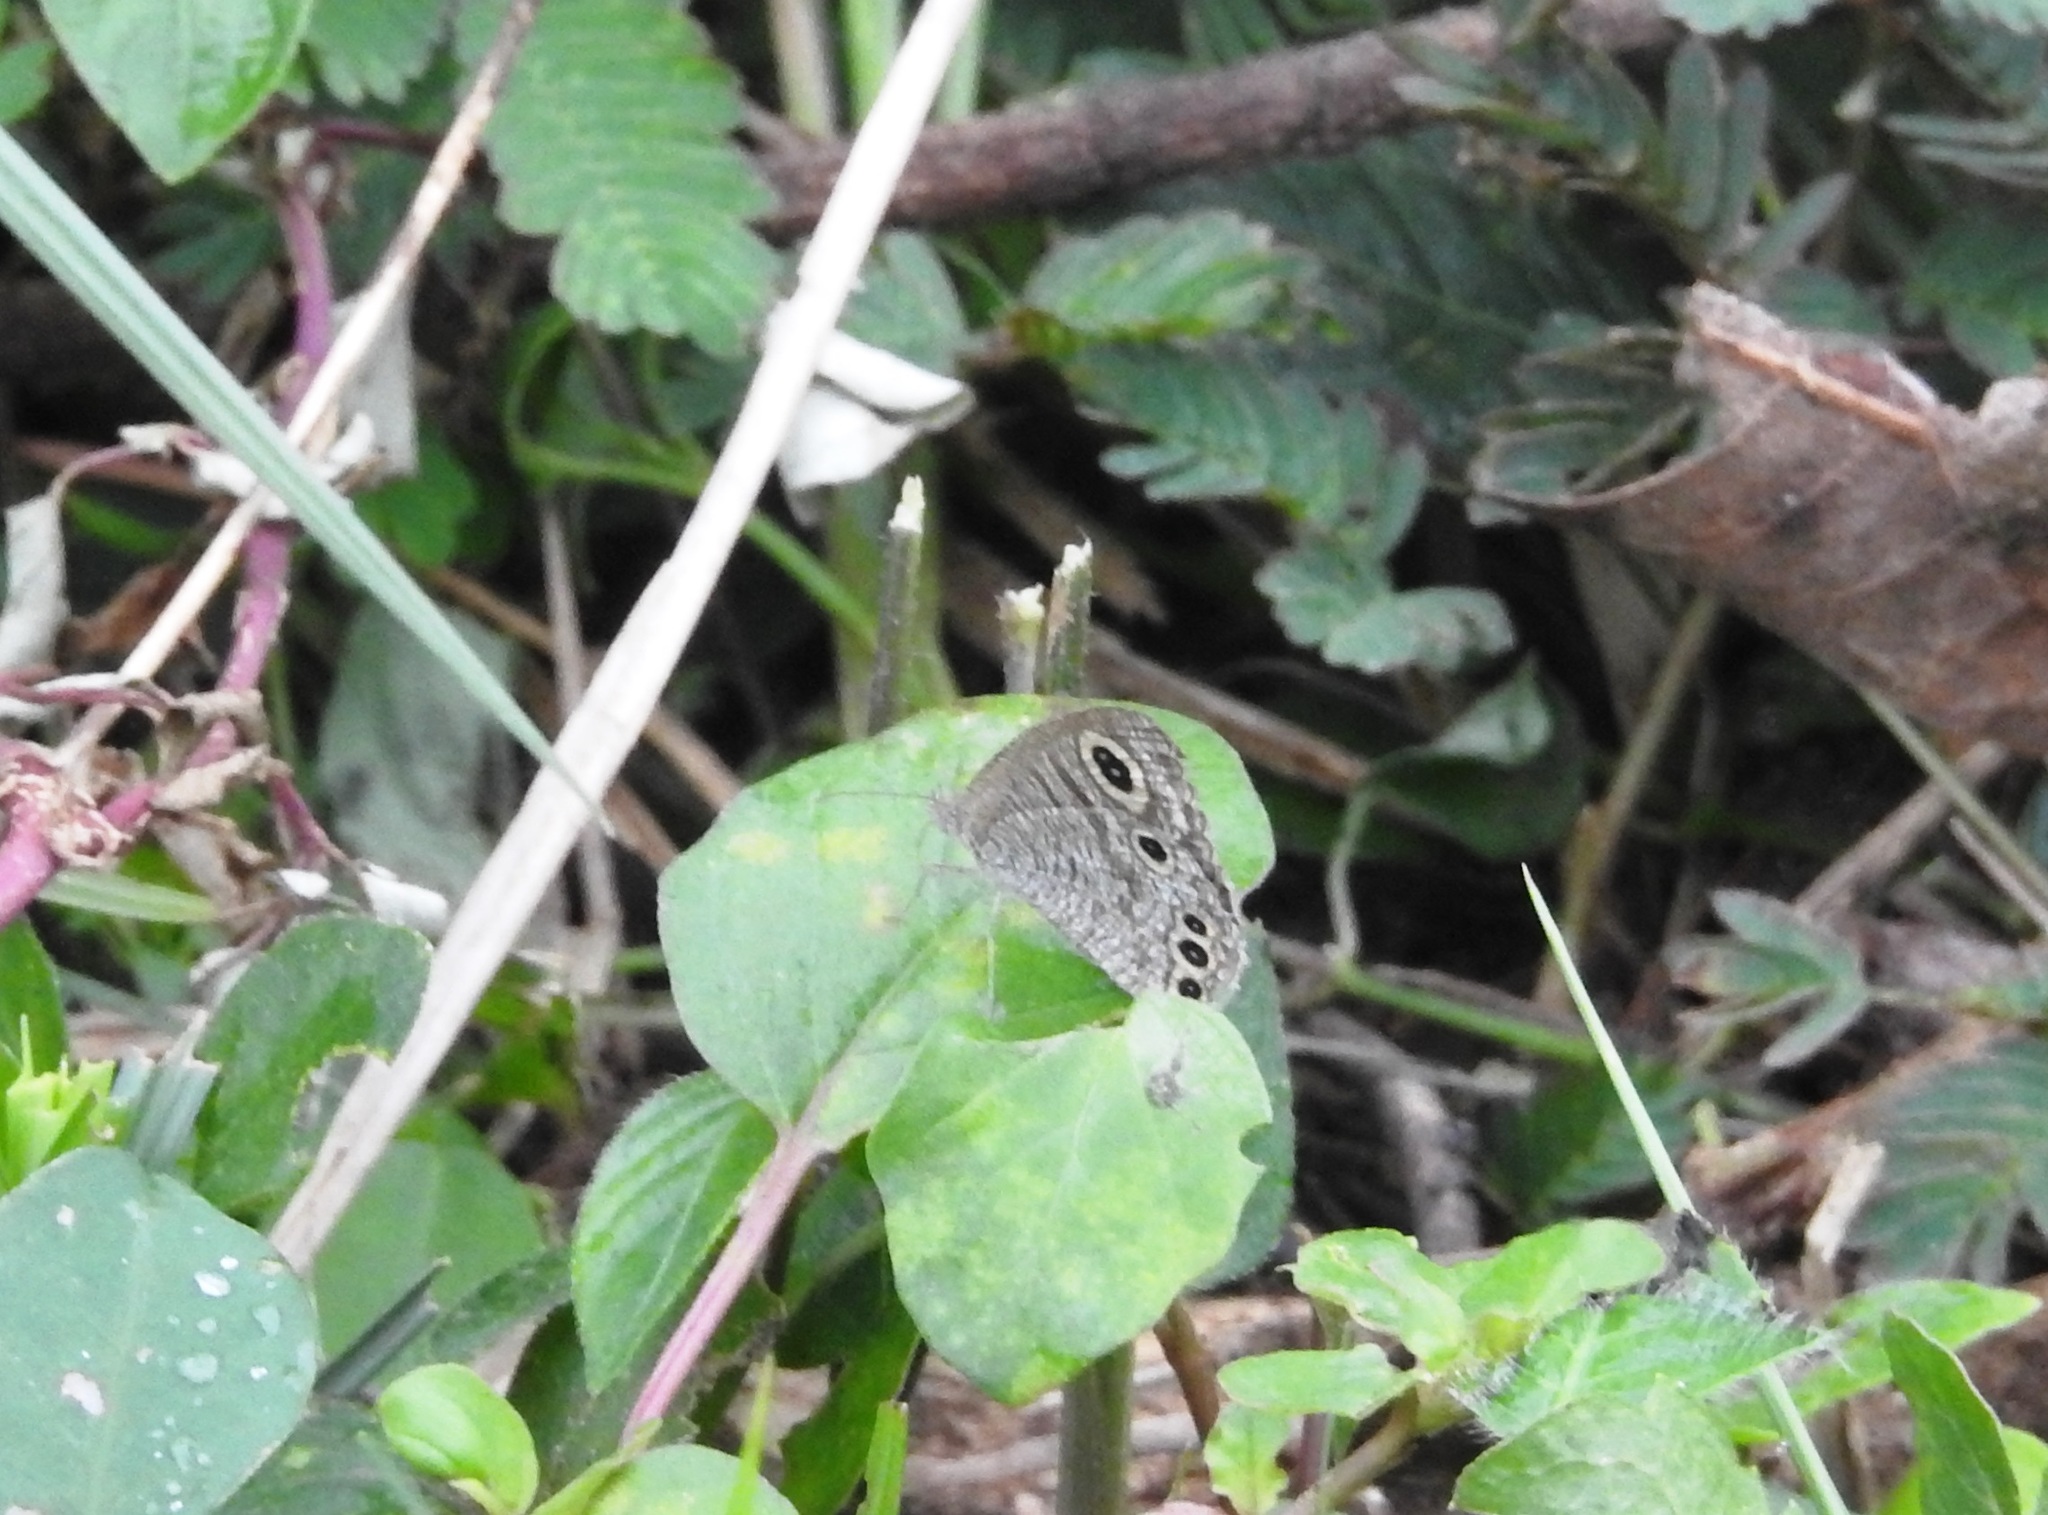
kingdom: Animalia
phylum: Arthropoda
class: Insecta
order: Lepidoptera
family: Nymphalidae
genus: Ypthima
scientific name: Ypthima huebneri
